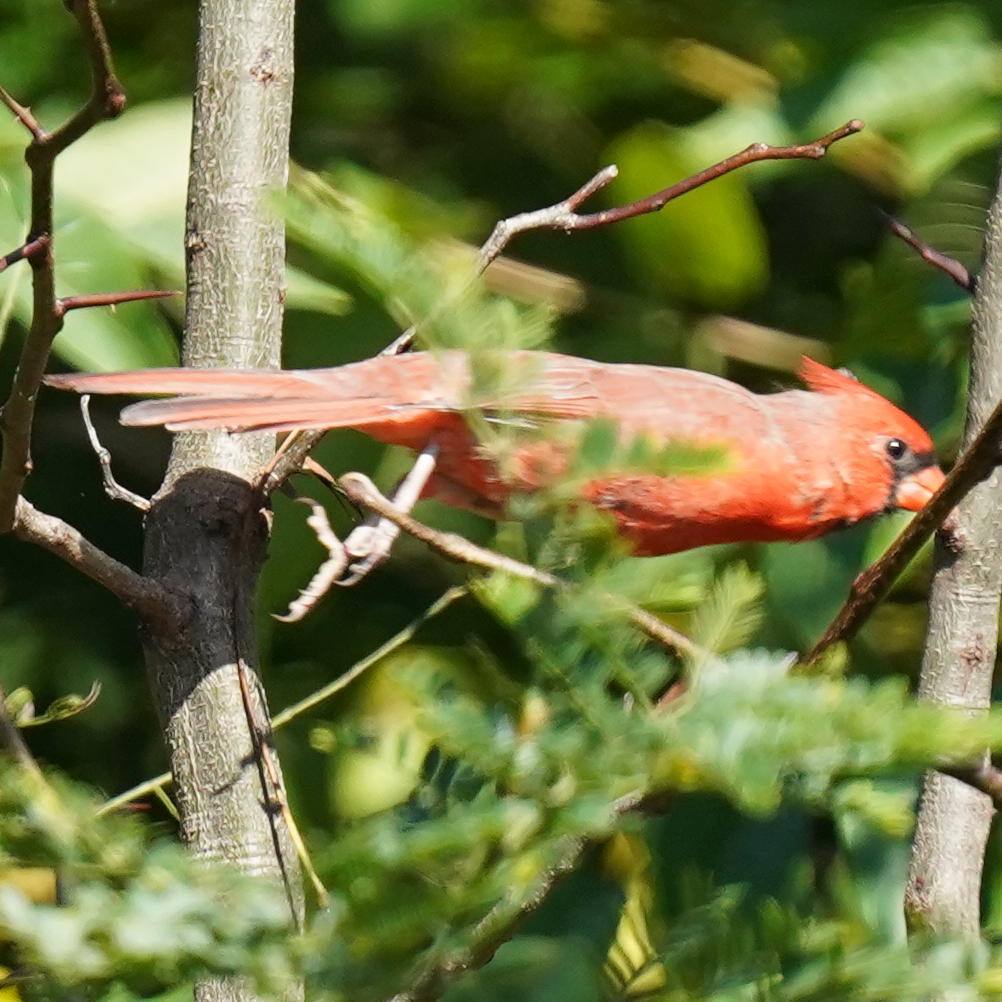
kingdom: Animalia
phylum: Chordata
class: Aves
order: Passeriformes
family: Cardinalidae
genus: Cardinalis
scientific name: Cardinalis cardinalis
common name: Northern cardinal
